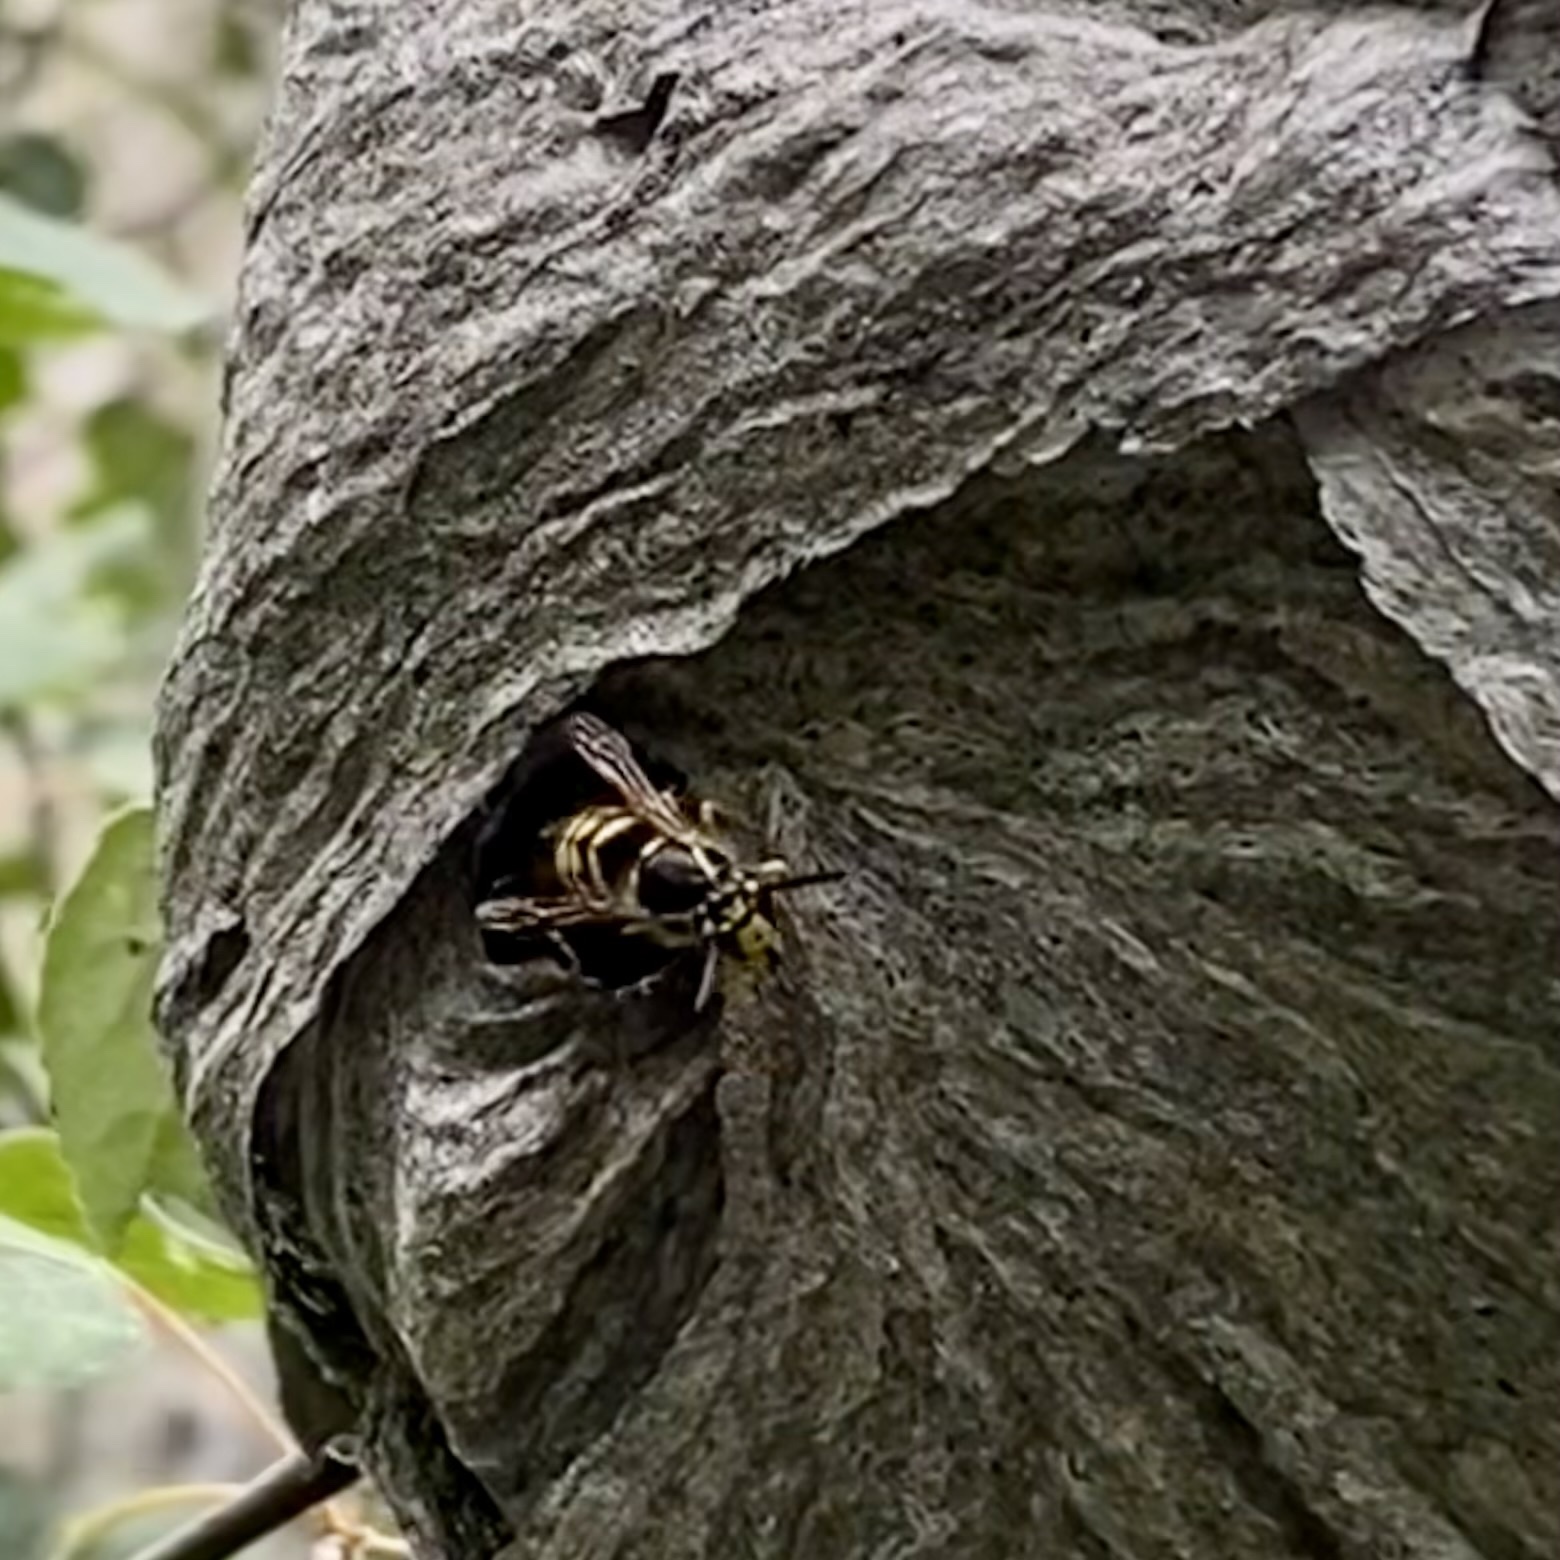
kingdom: Animalia
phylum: Arthropoda
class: Insecta
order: Hymenoptera
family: Vespidae
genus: Dolichovespula
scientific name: Dolichovespula arenaria
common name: Aerial yellowjacket
